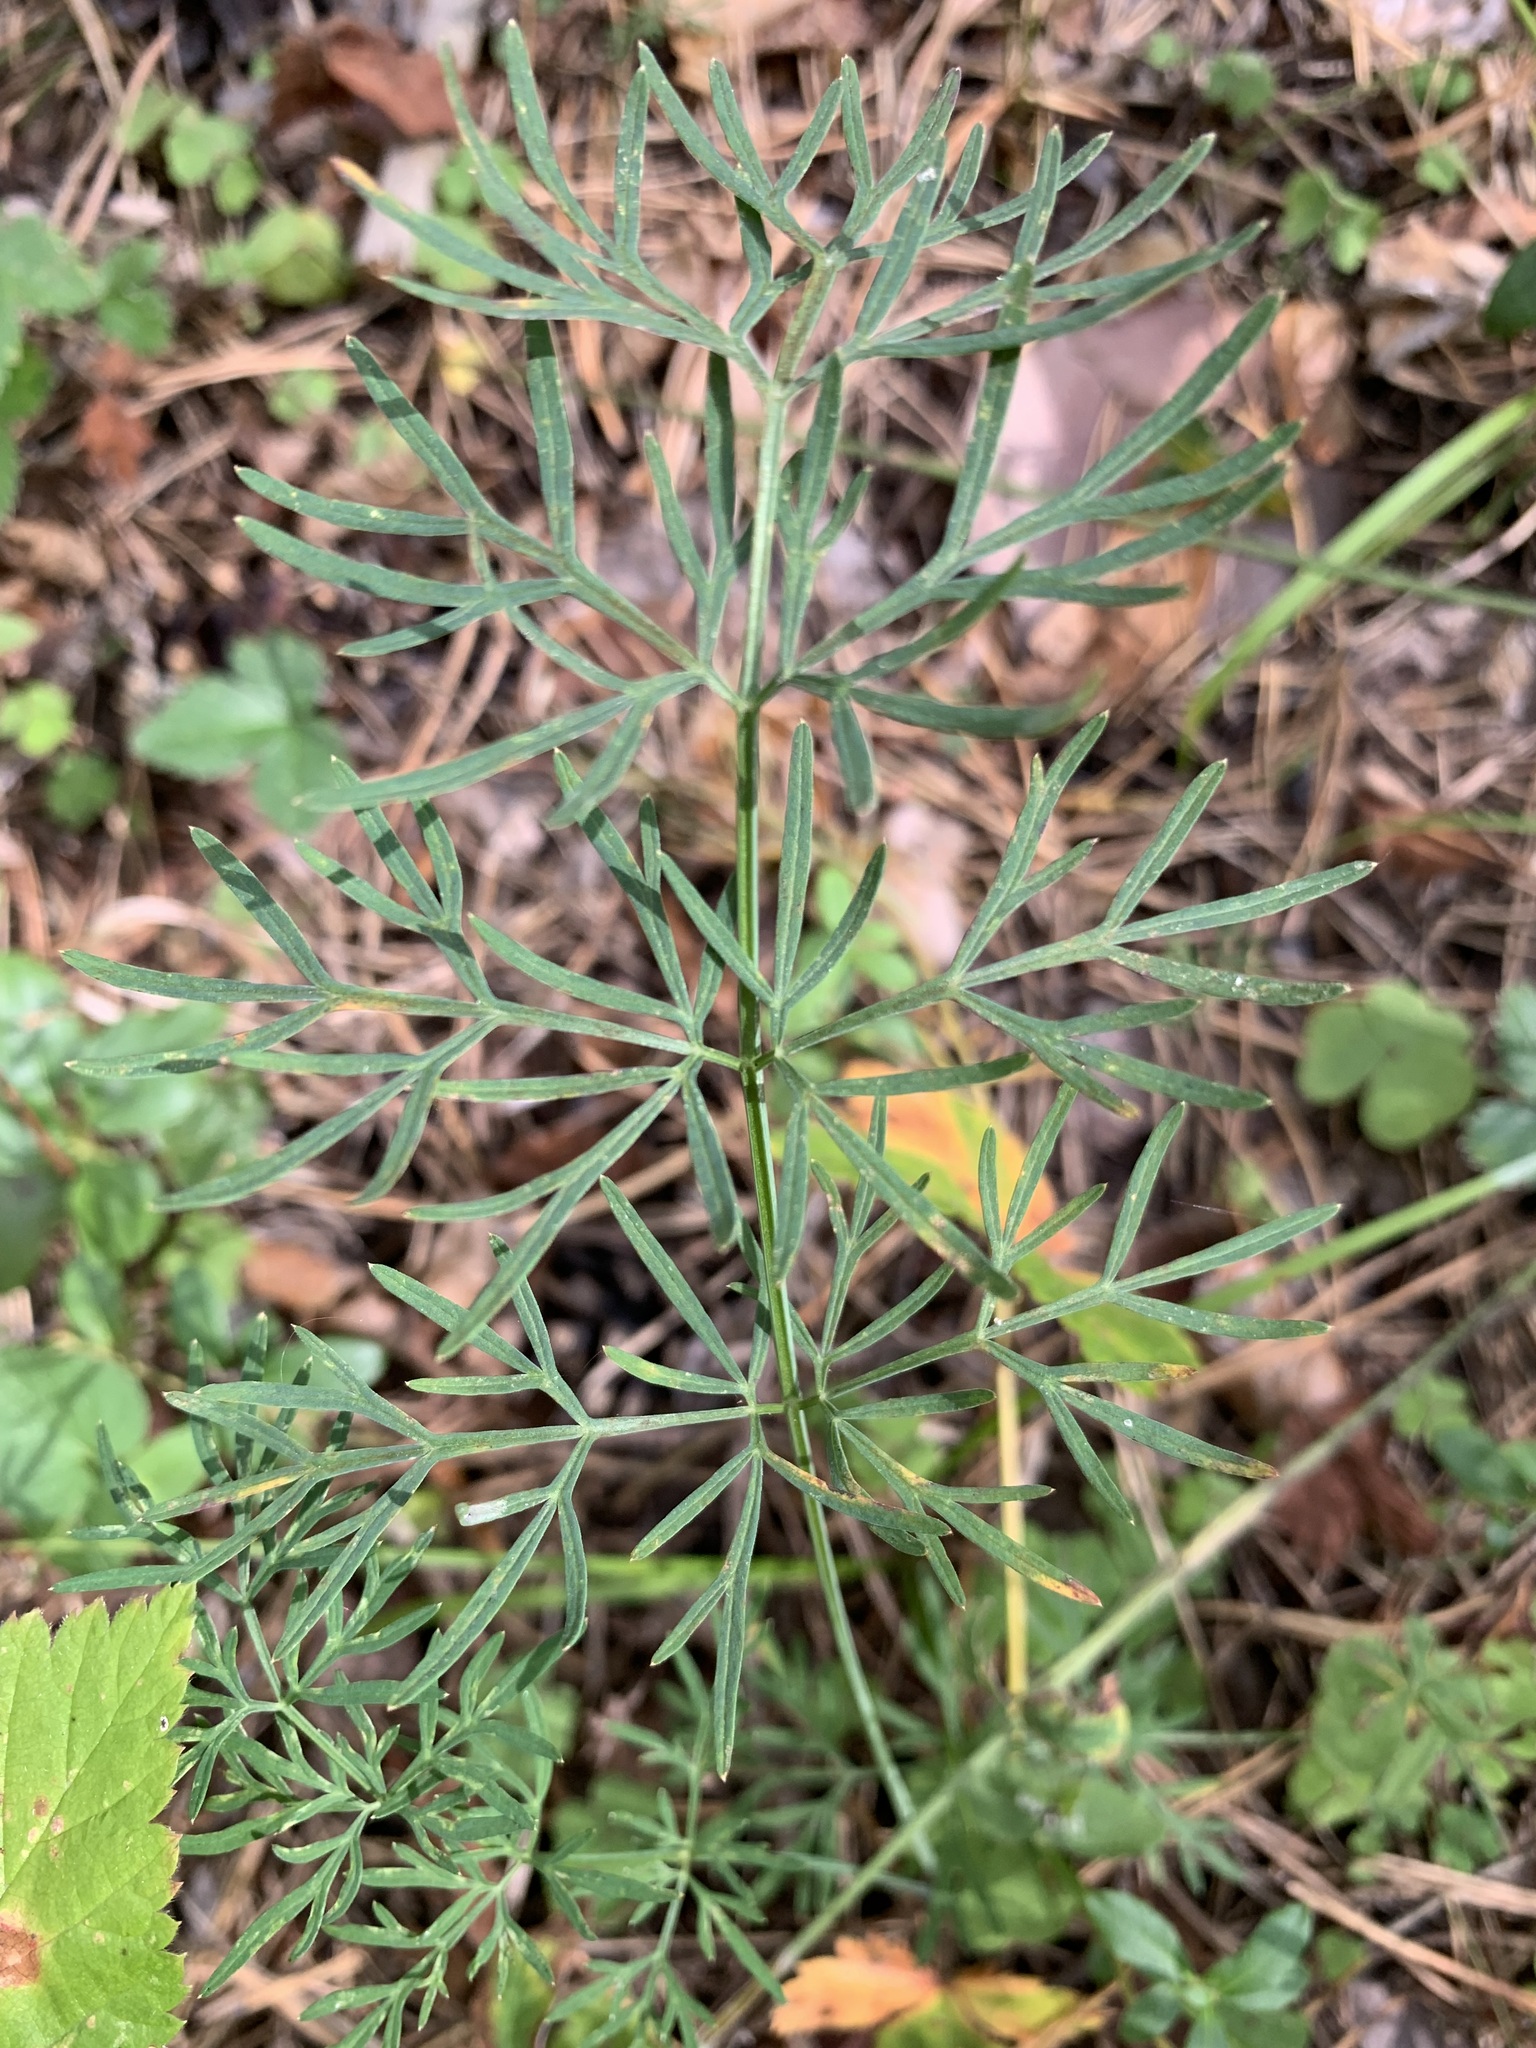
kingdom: Plantae
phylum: Tracheophyta
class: Magnoliopsida
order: Apiales
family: Apiaceae
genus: Kadenia
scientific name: Kadenia dubia
